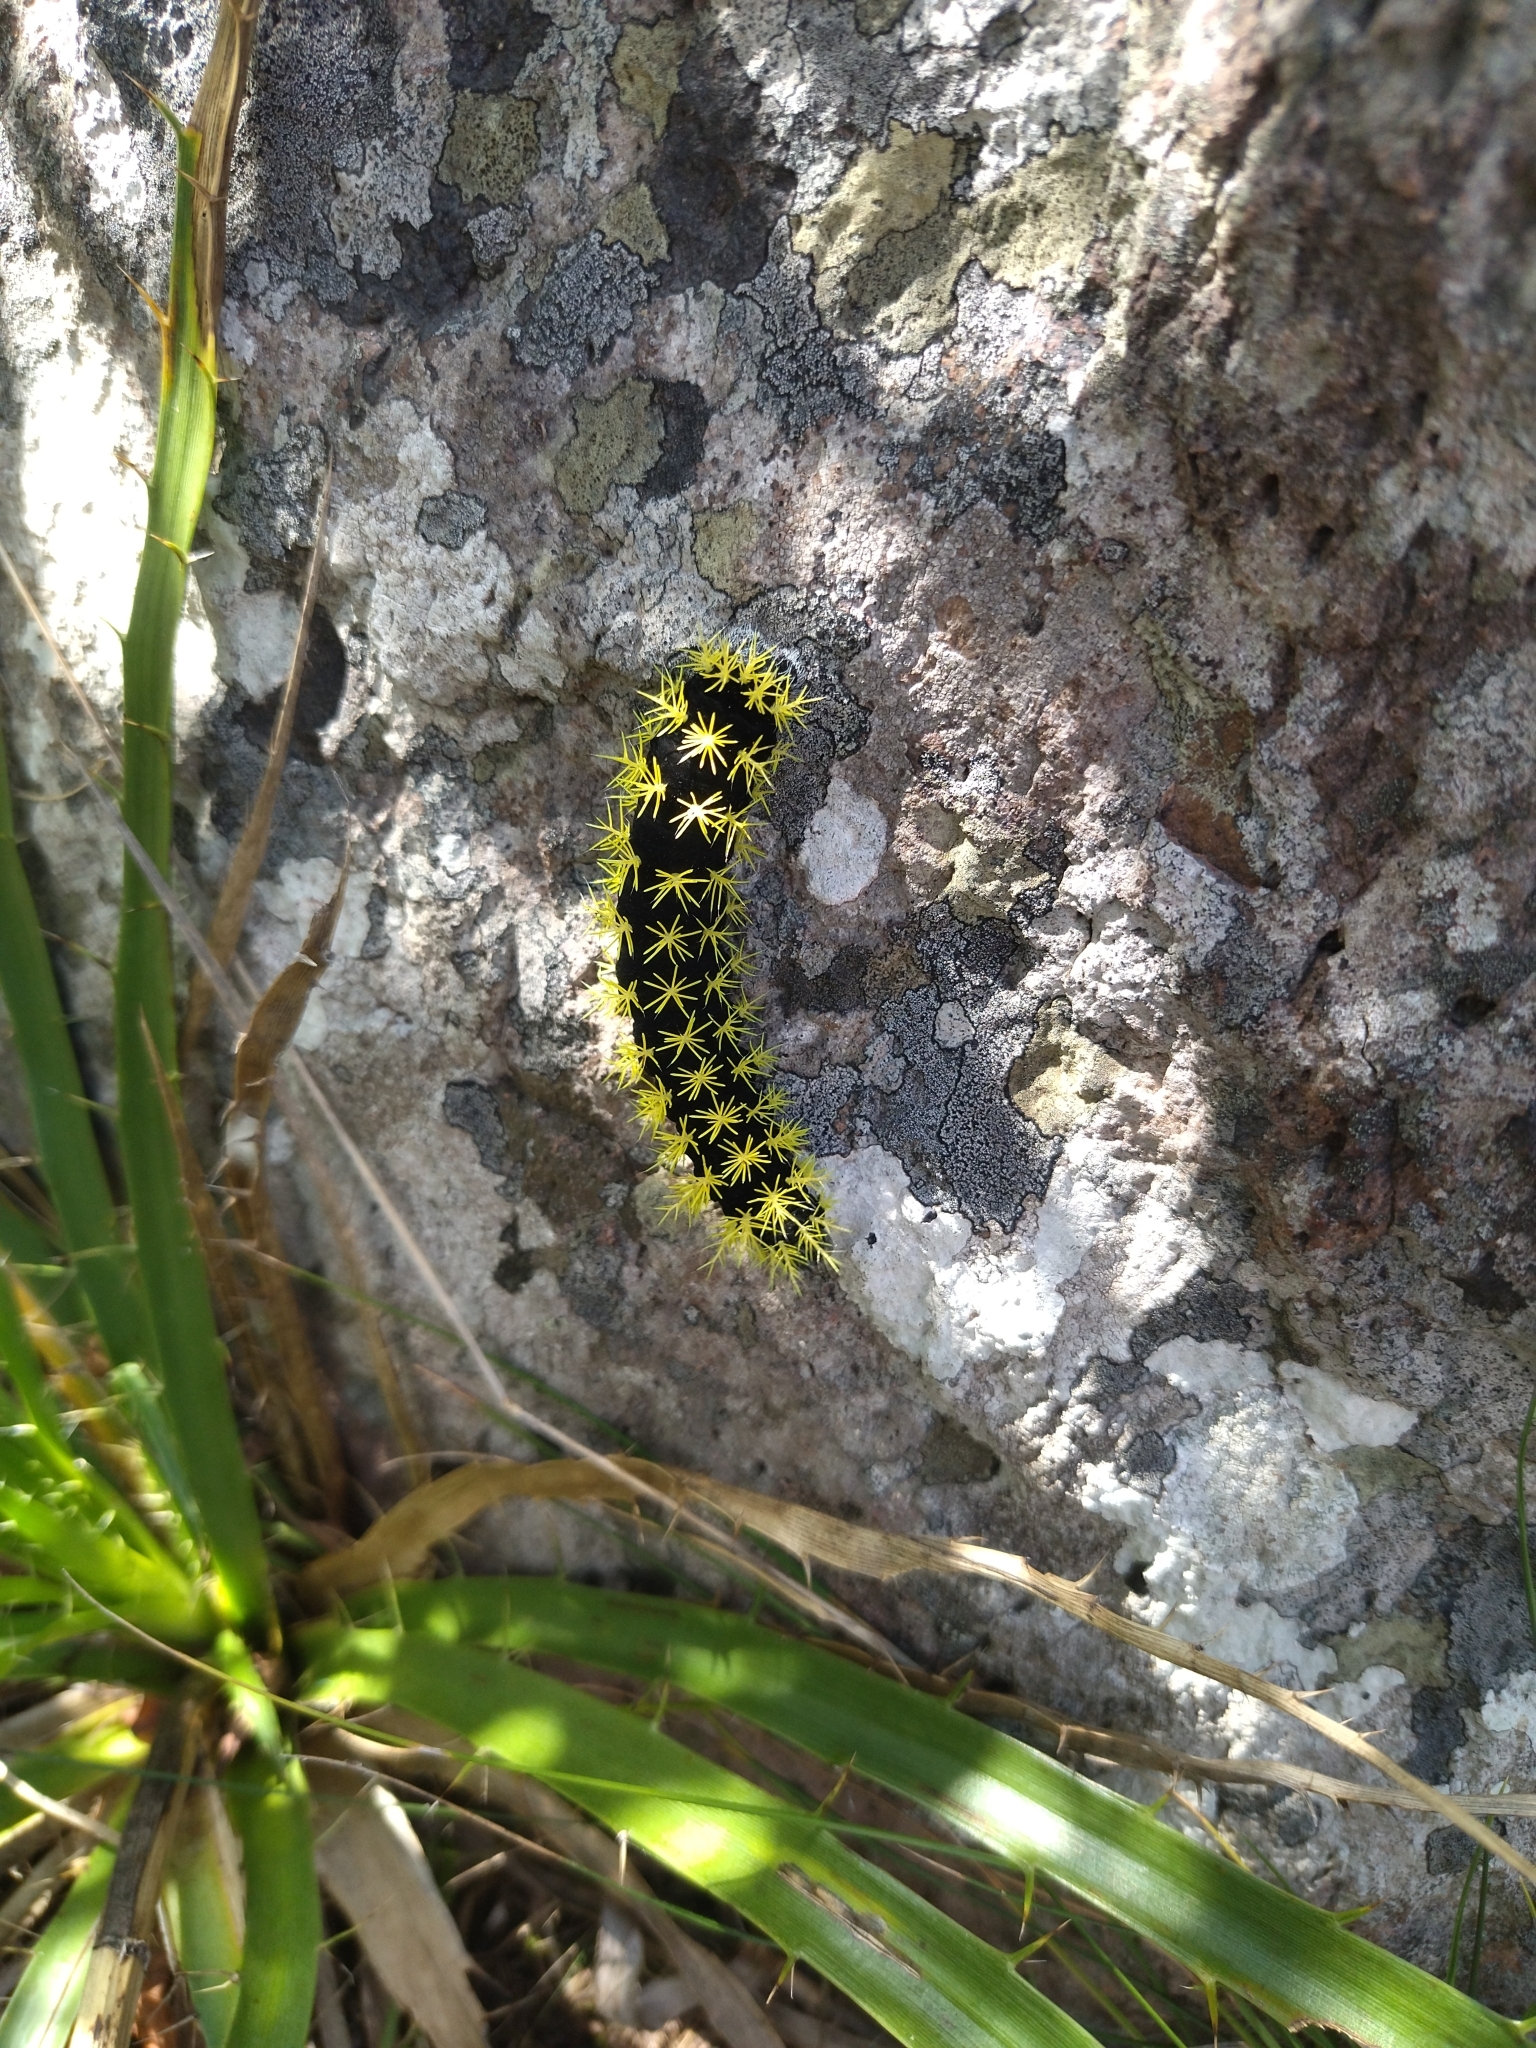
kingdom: Animalia
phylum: Arthropoda
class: Insecta
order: Lepidoptera
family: Saturniidae
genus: Leucanella
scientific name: Leucanella viridescens
